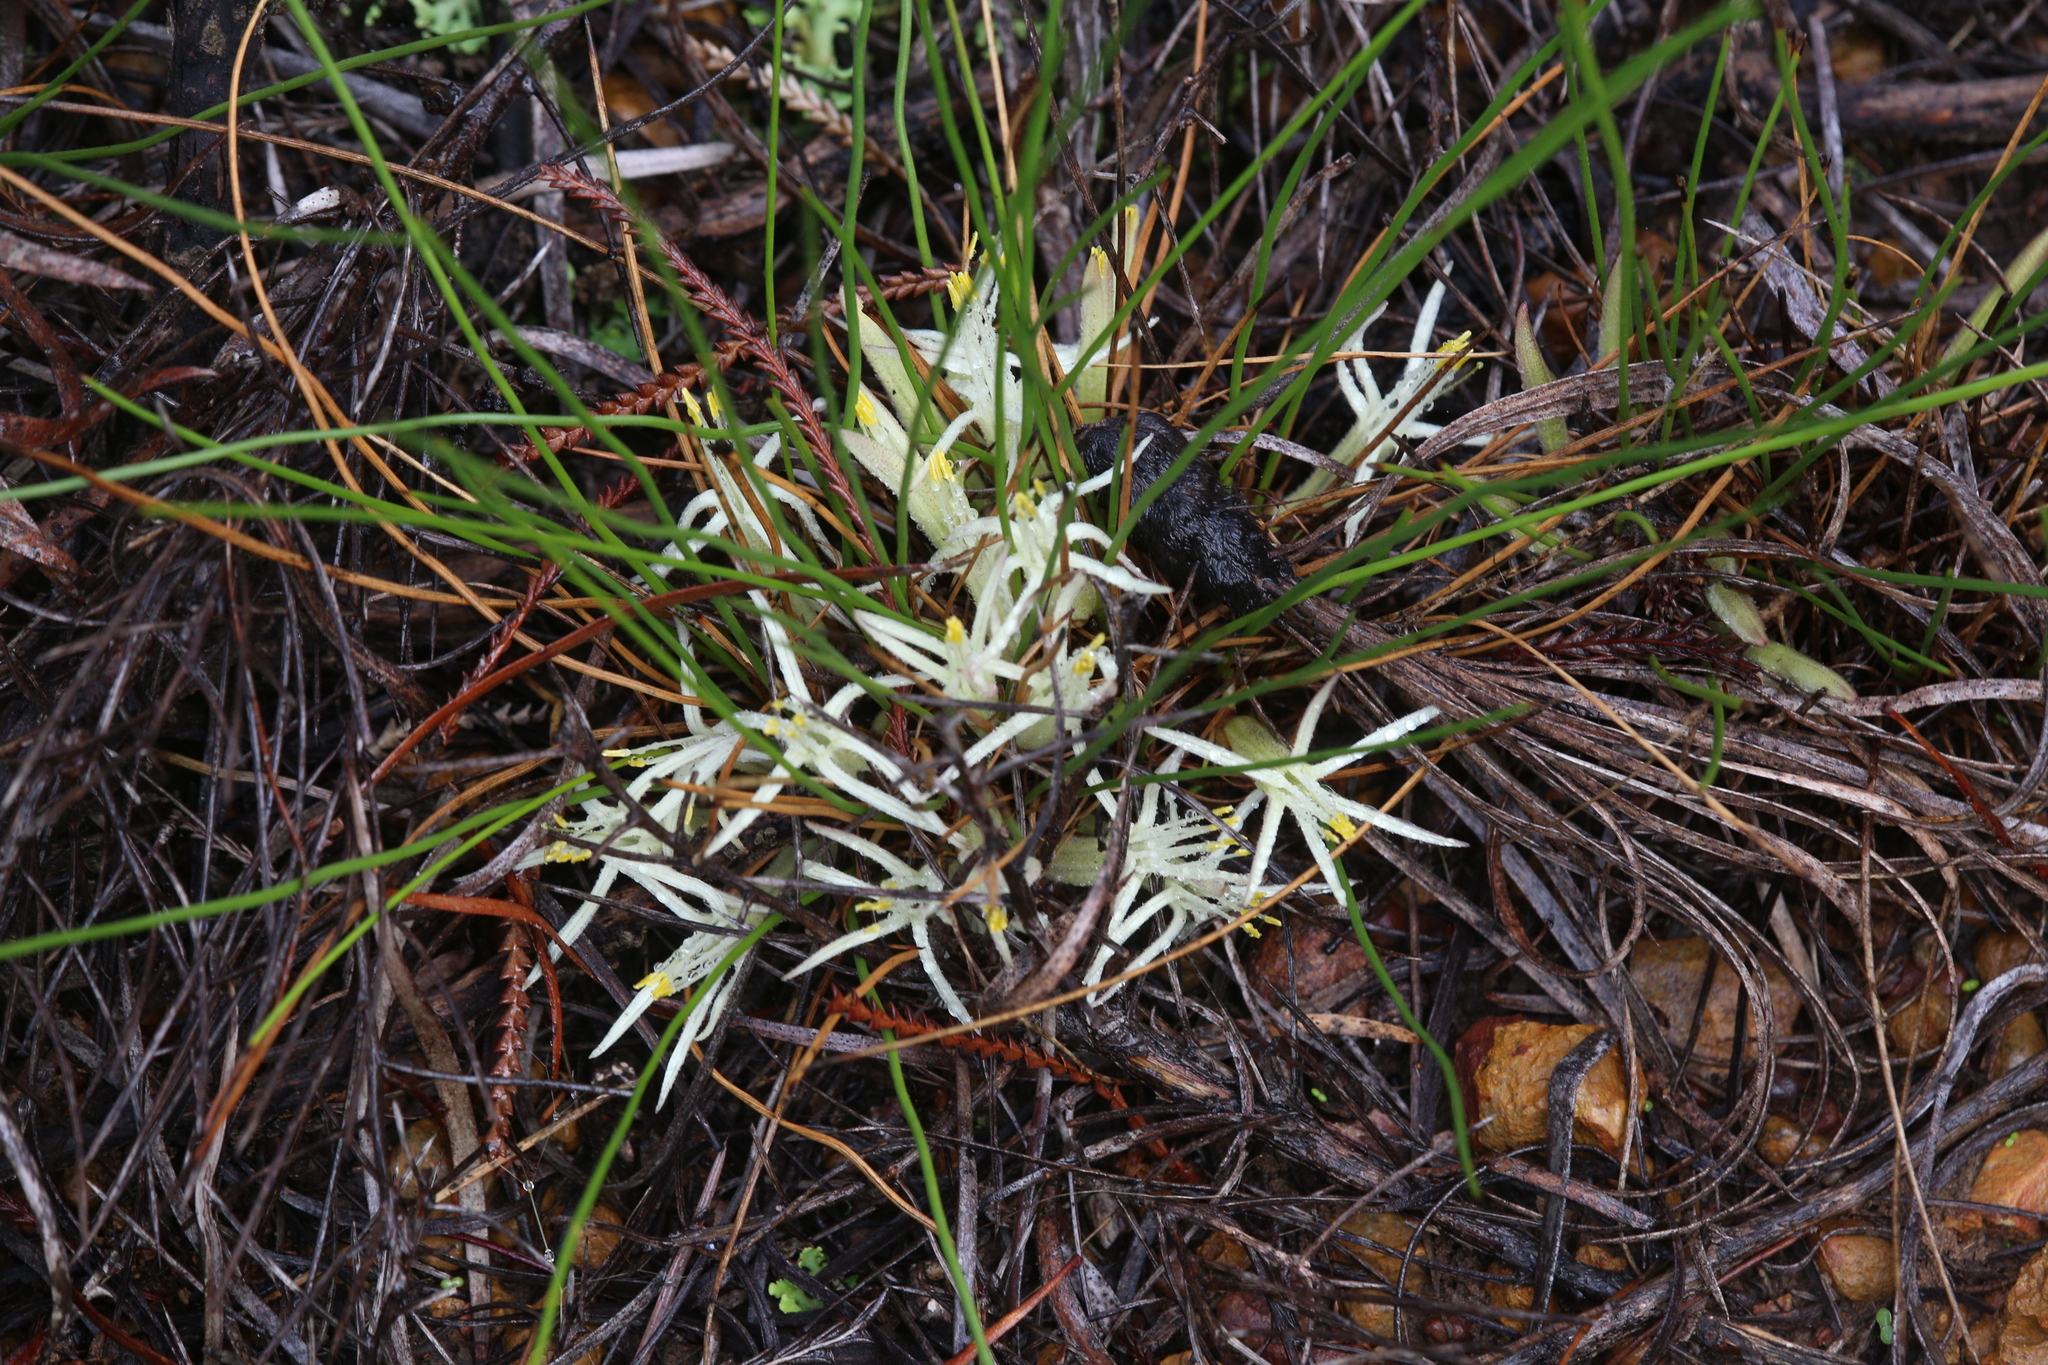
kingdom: Plantae
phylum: Tracheophyta
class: Liliopsida
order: Commelinales
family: Haemodoraceae
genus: Conostylis
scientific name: Conostylis androstemma
